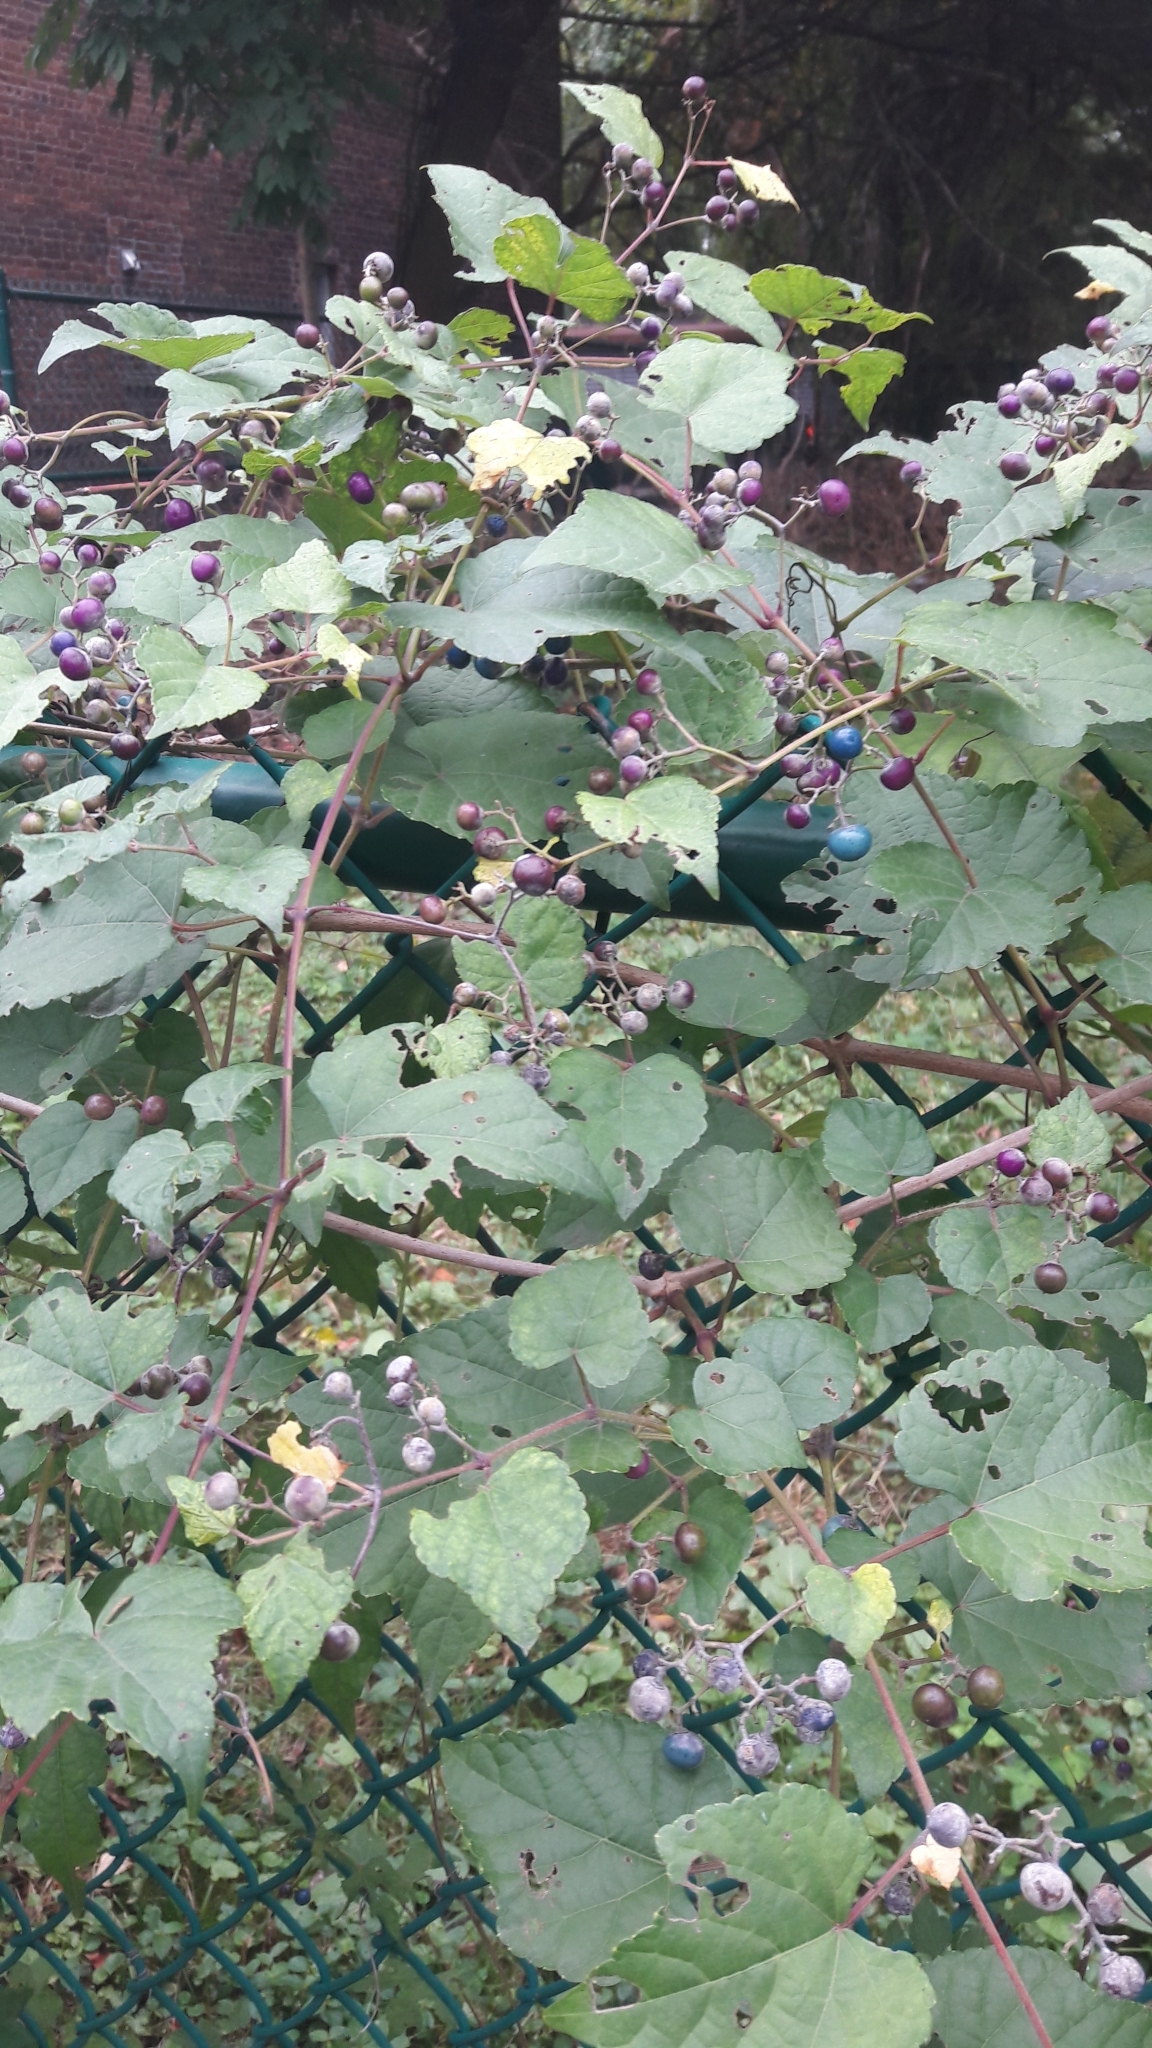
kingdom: Plantae
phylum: Tracheophyta
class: Magnoliopsida
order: Vitales
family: Vitaceae
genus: Ampelopsis
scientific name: Ampelopsis glandulosa
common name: Amur peppervine
